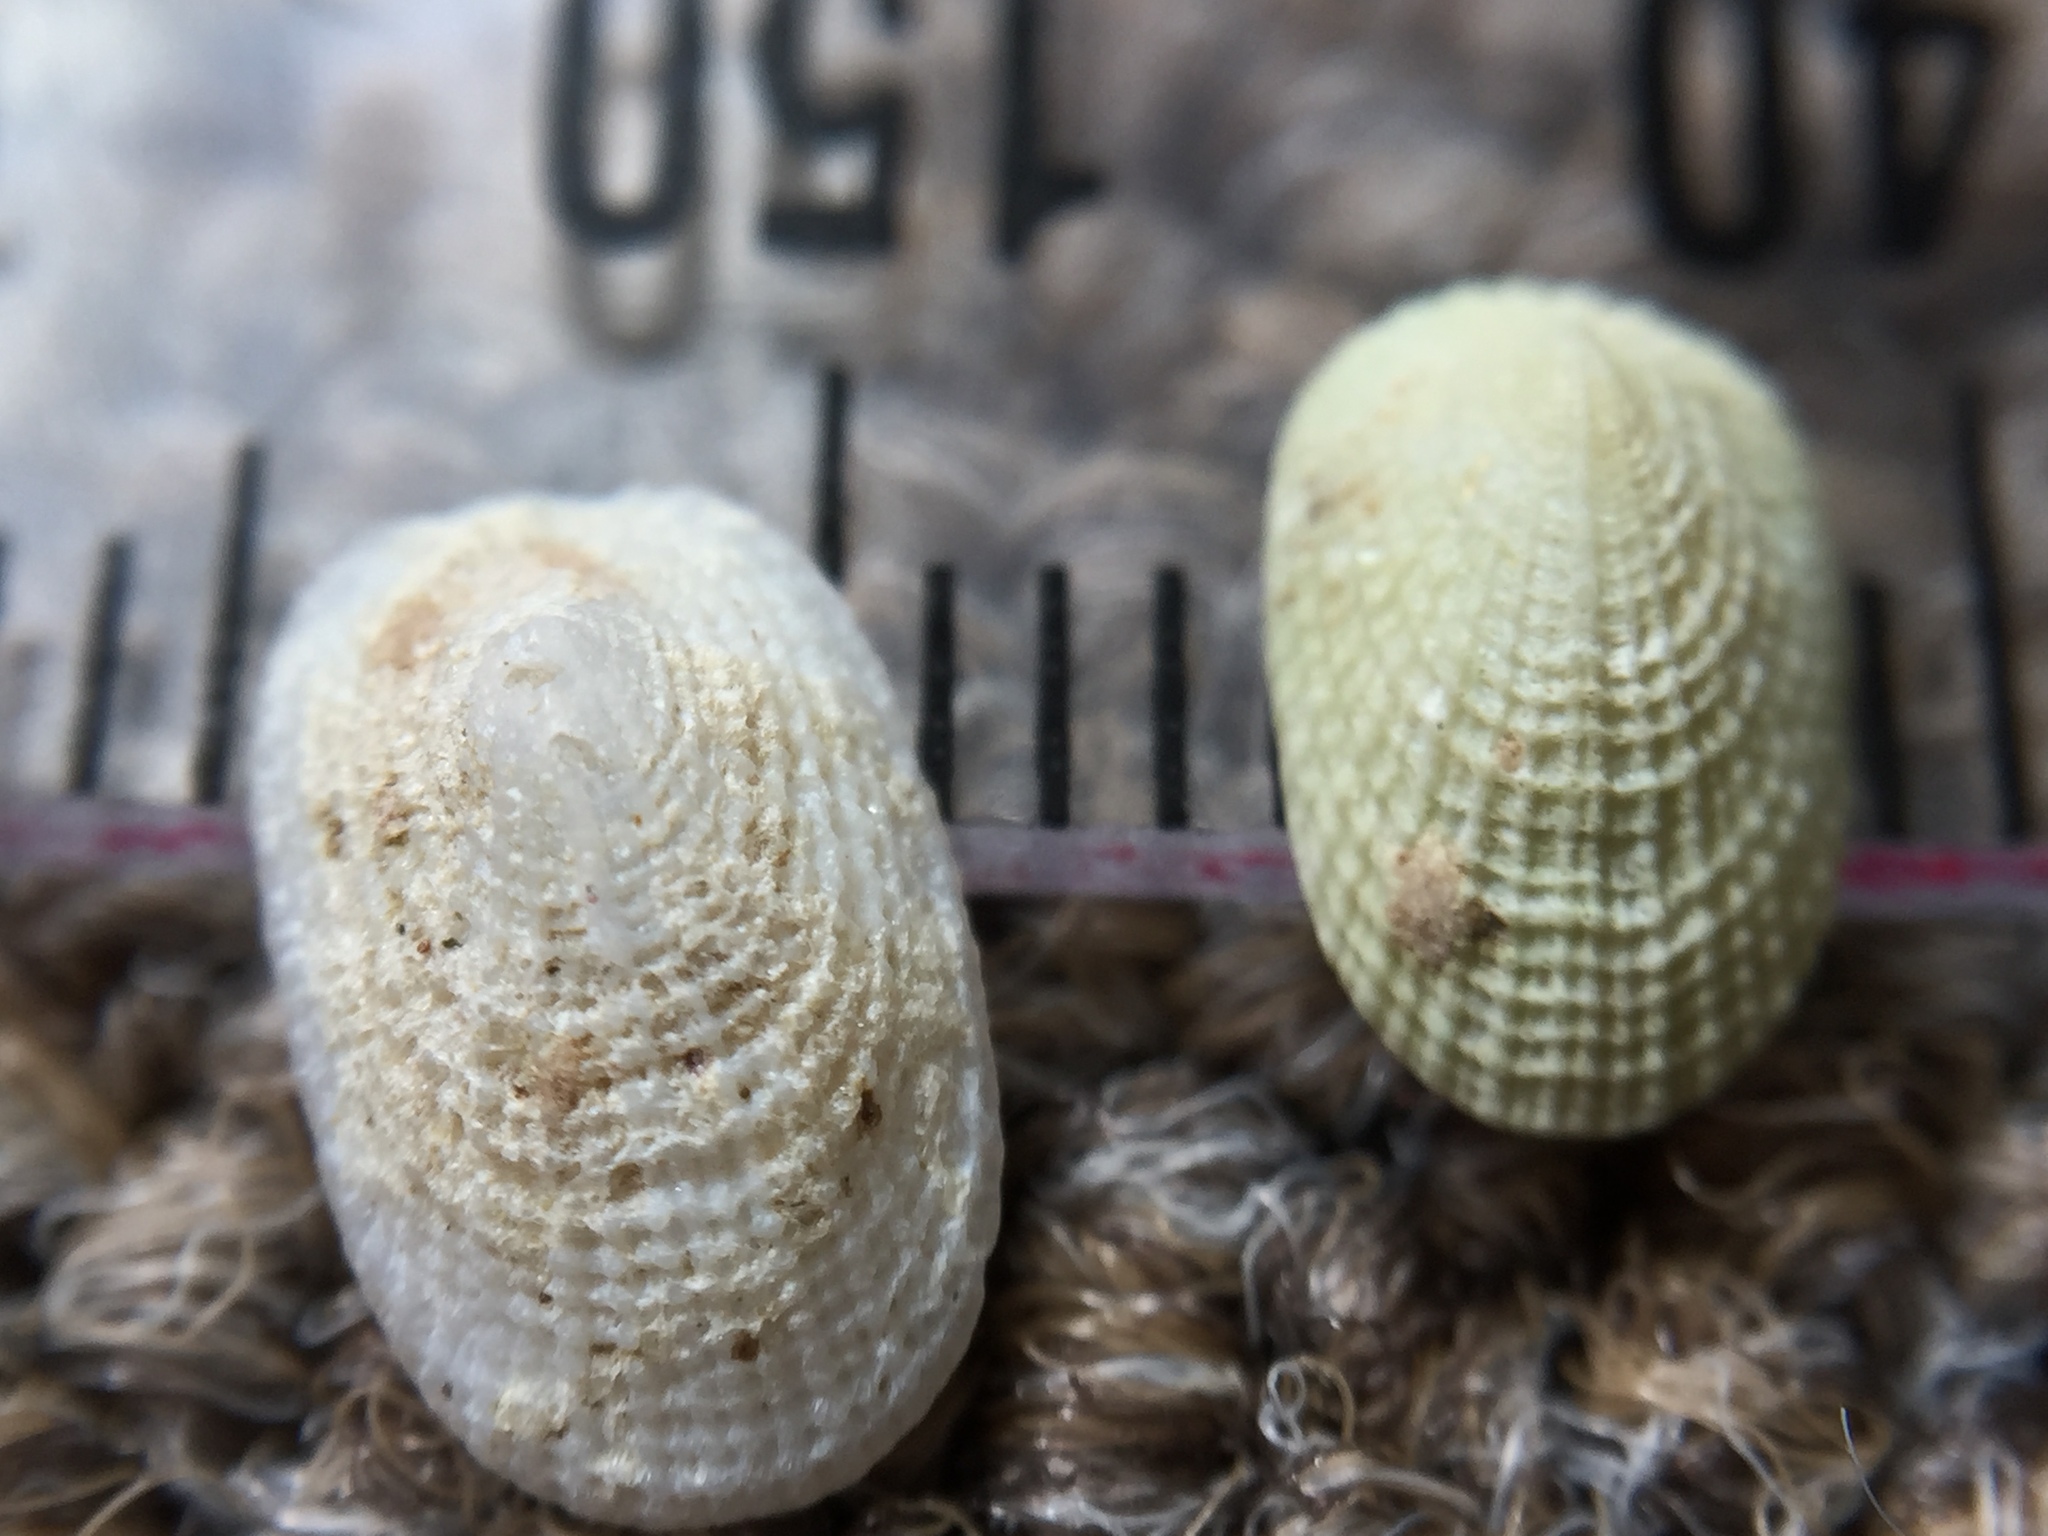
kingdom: Animalia
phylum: Mollusca
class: Gastropoda
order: Lepetellida
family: Fissurellidae
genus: Tugali
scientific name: Tugali suteri
